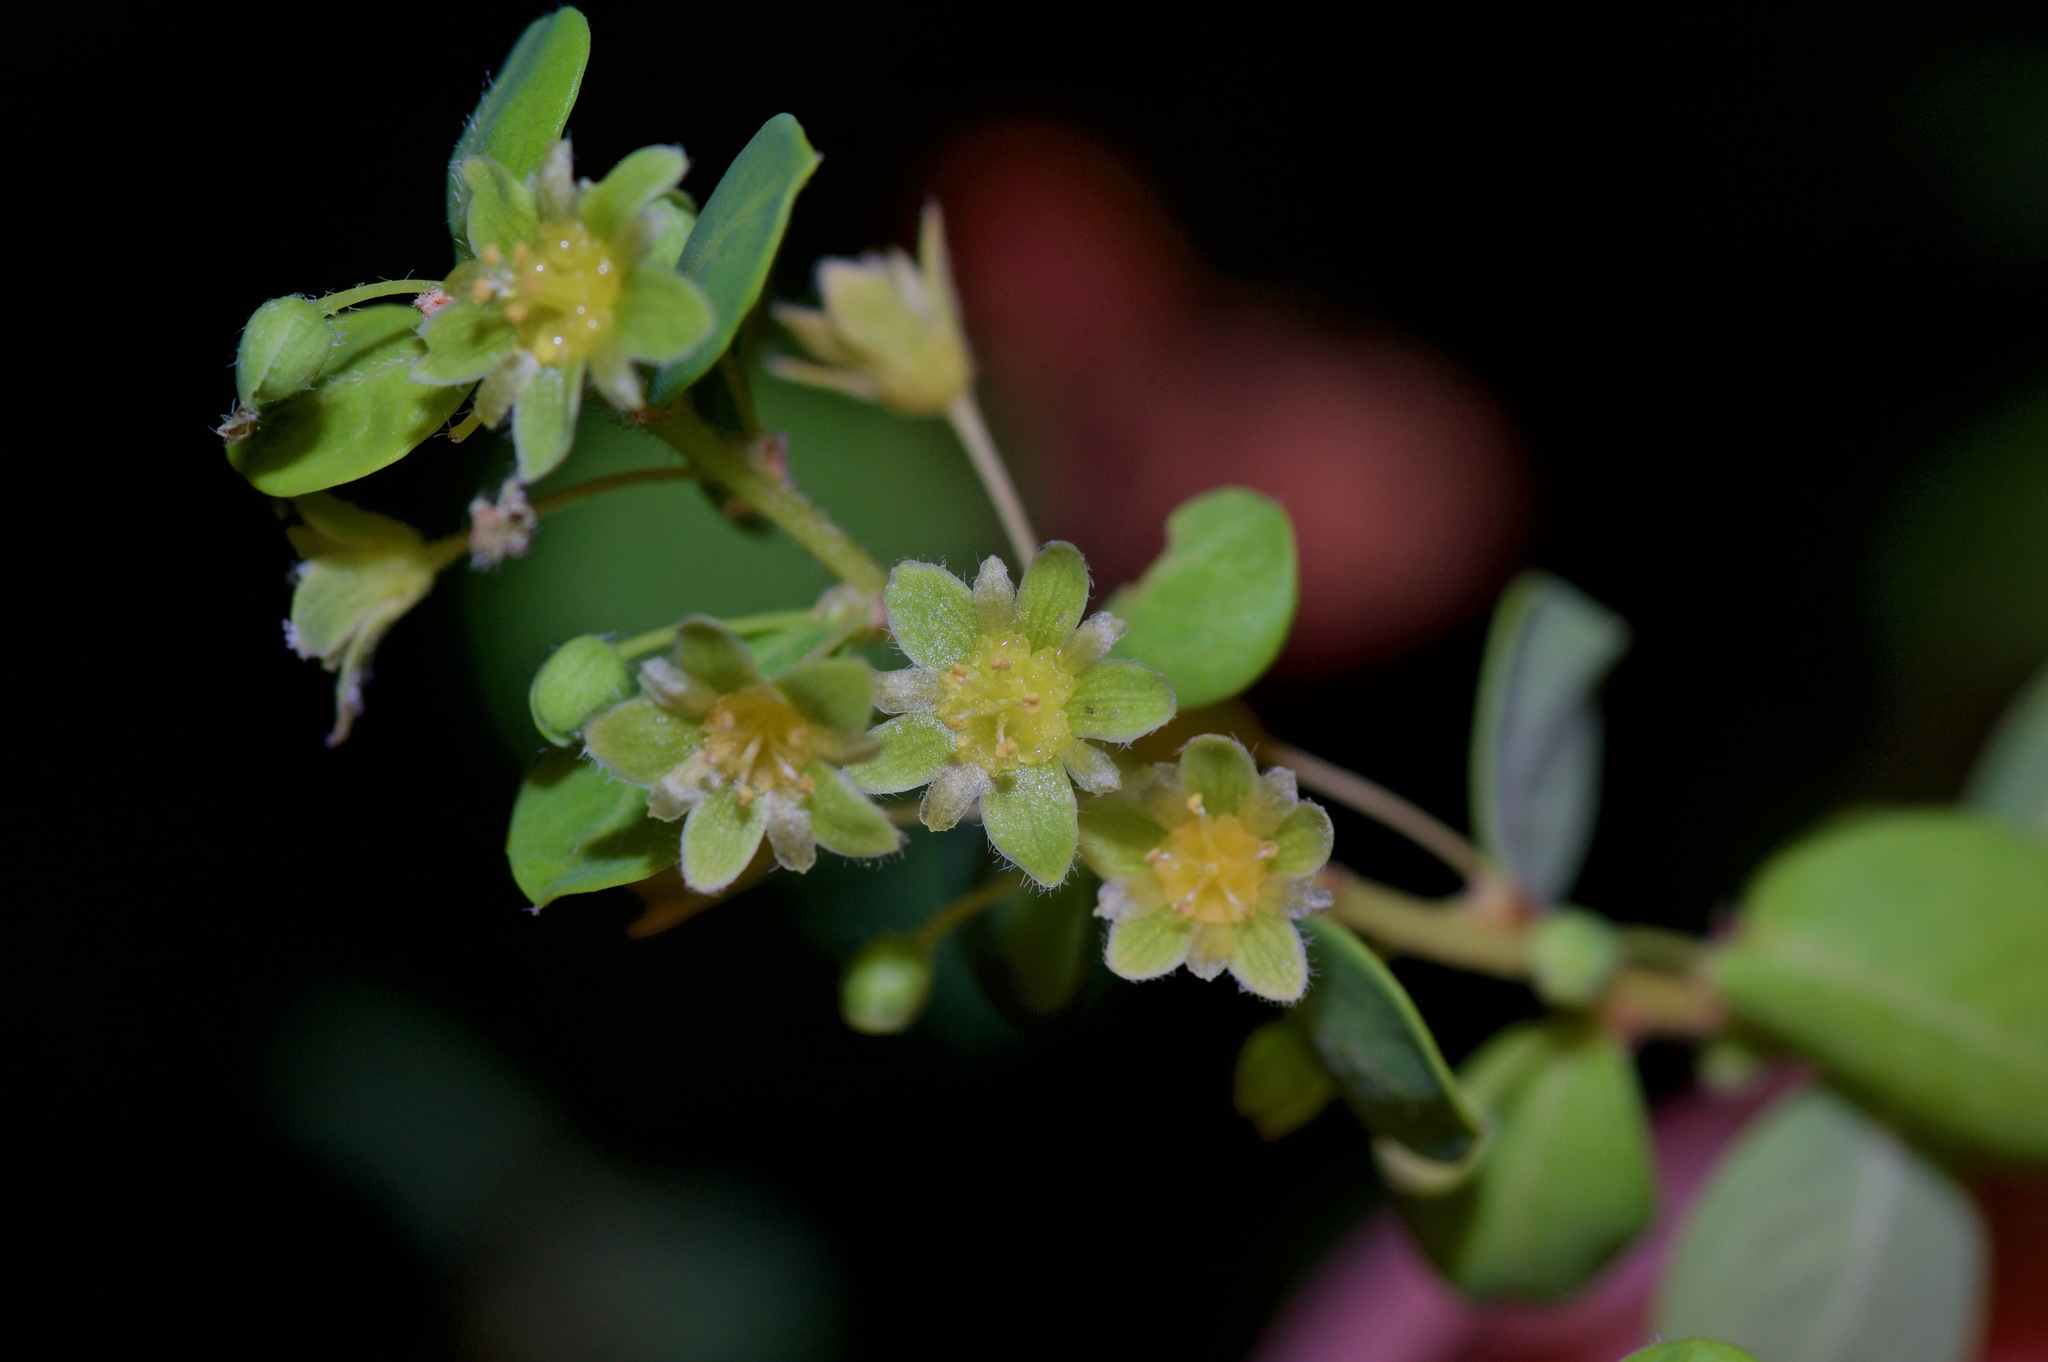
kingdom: Plantae
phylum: Tracheophyta
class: Magnoliopsida
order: Malpighiales
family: Phyllanthaceae
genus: Phyllanthopsis
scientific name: Phyllanthopsis phyllanthoides
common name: Missouri maidenbush
